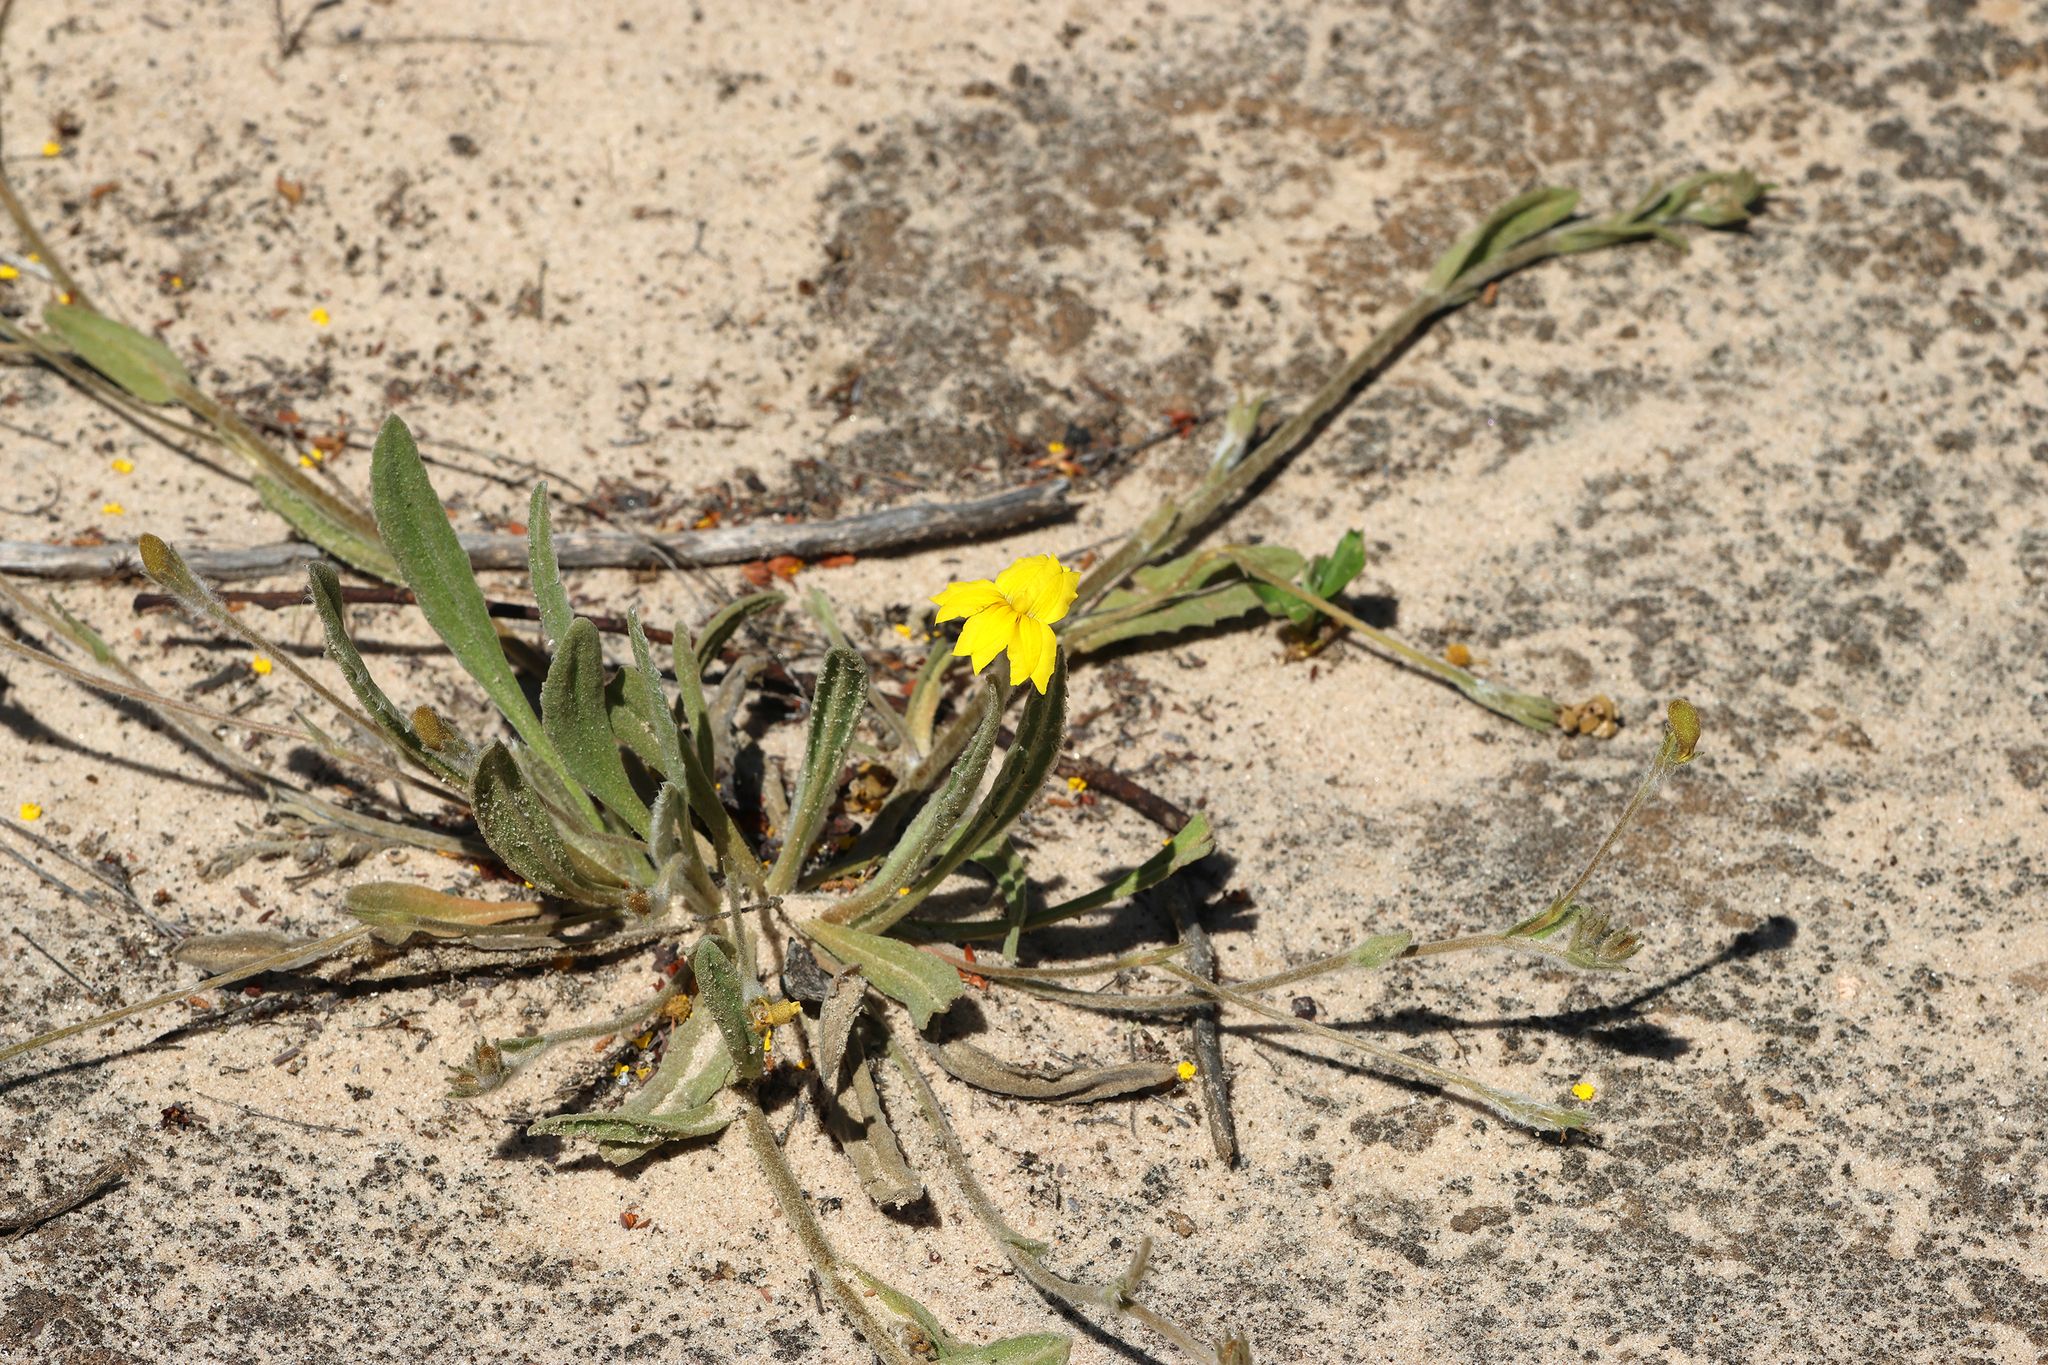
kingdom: Plantae
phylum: Tracheophyta
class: Magnoliopsida
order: Asterales
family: Goodeniaceae
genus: Goodenia
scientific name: Goodenia willisiana
